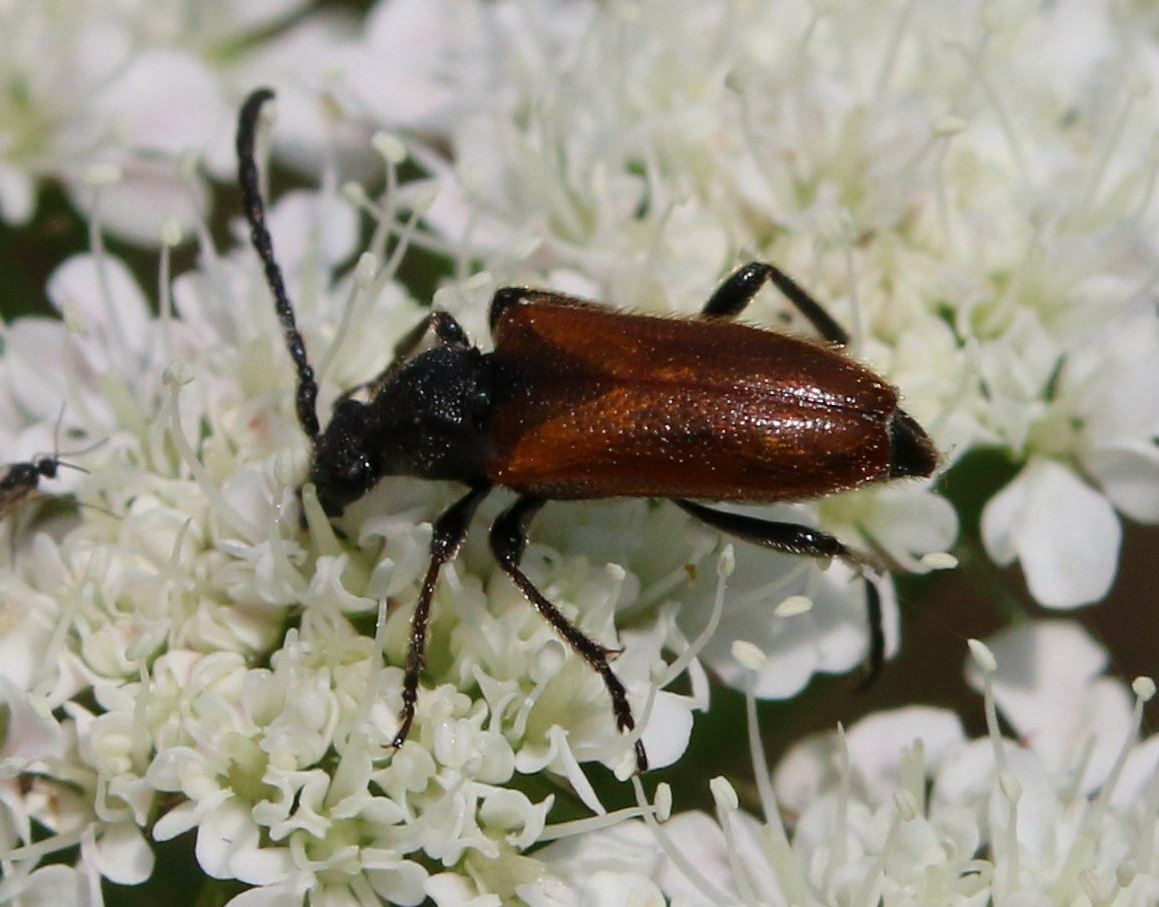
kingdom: Animalia
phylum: Arthropoda
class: Insecta
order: Coleoptera
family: Cerambycidae
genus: Pseudovadonia
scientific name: Pseudovadonia livida
